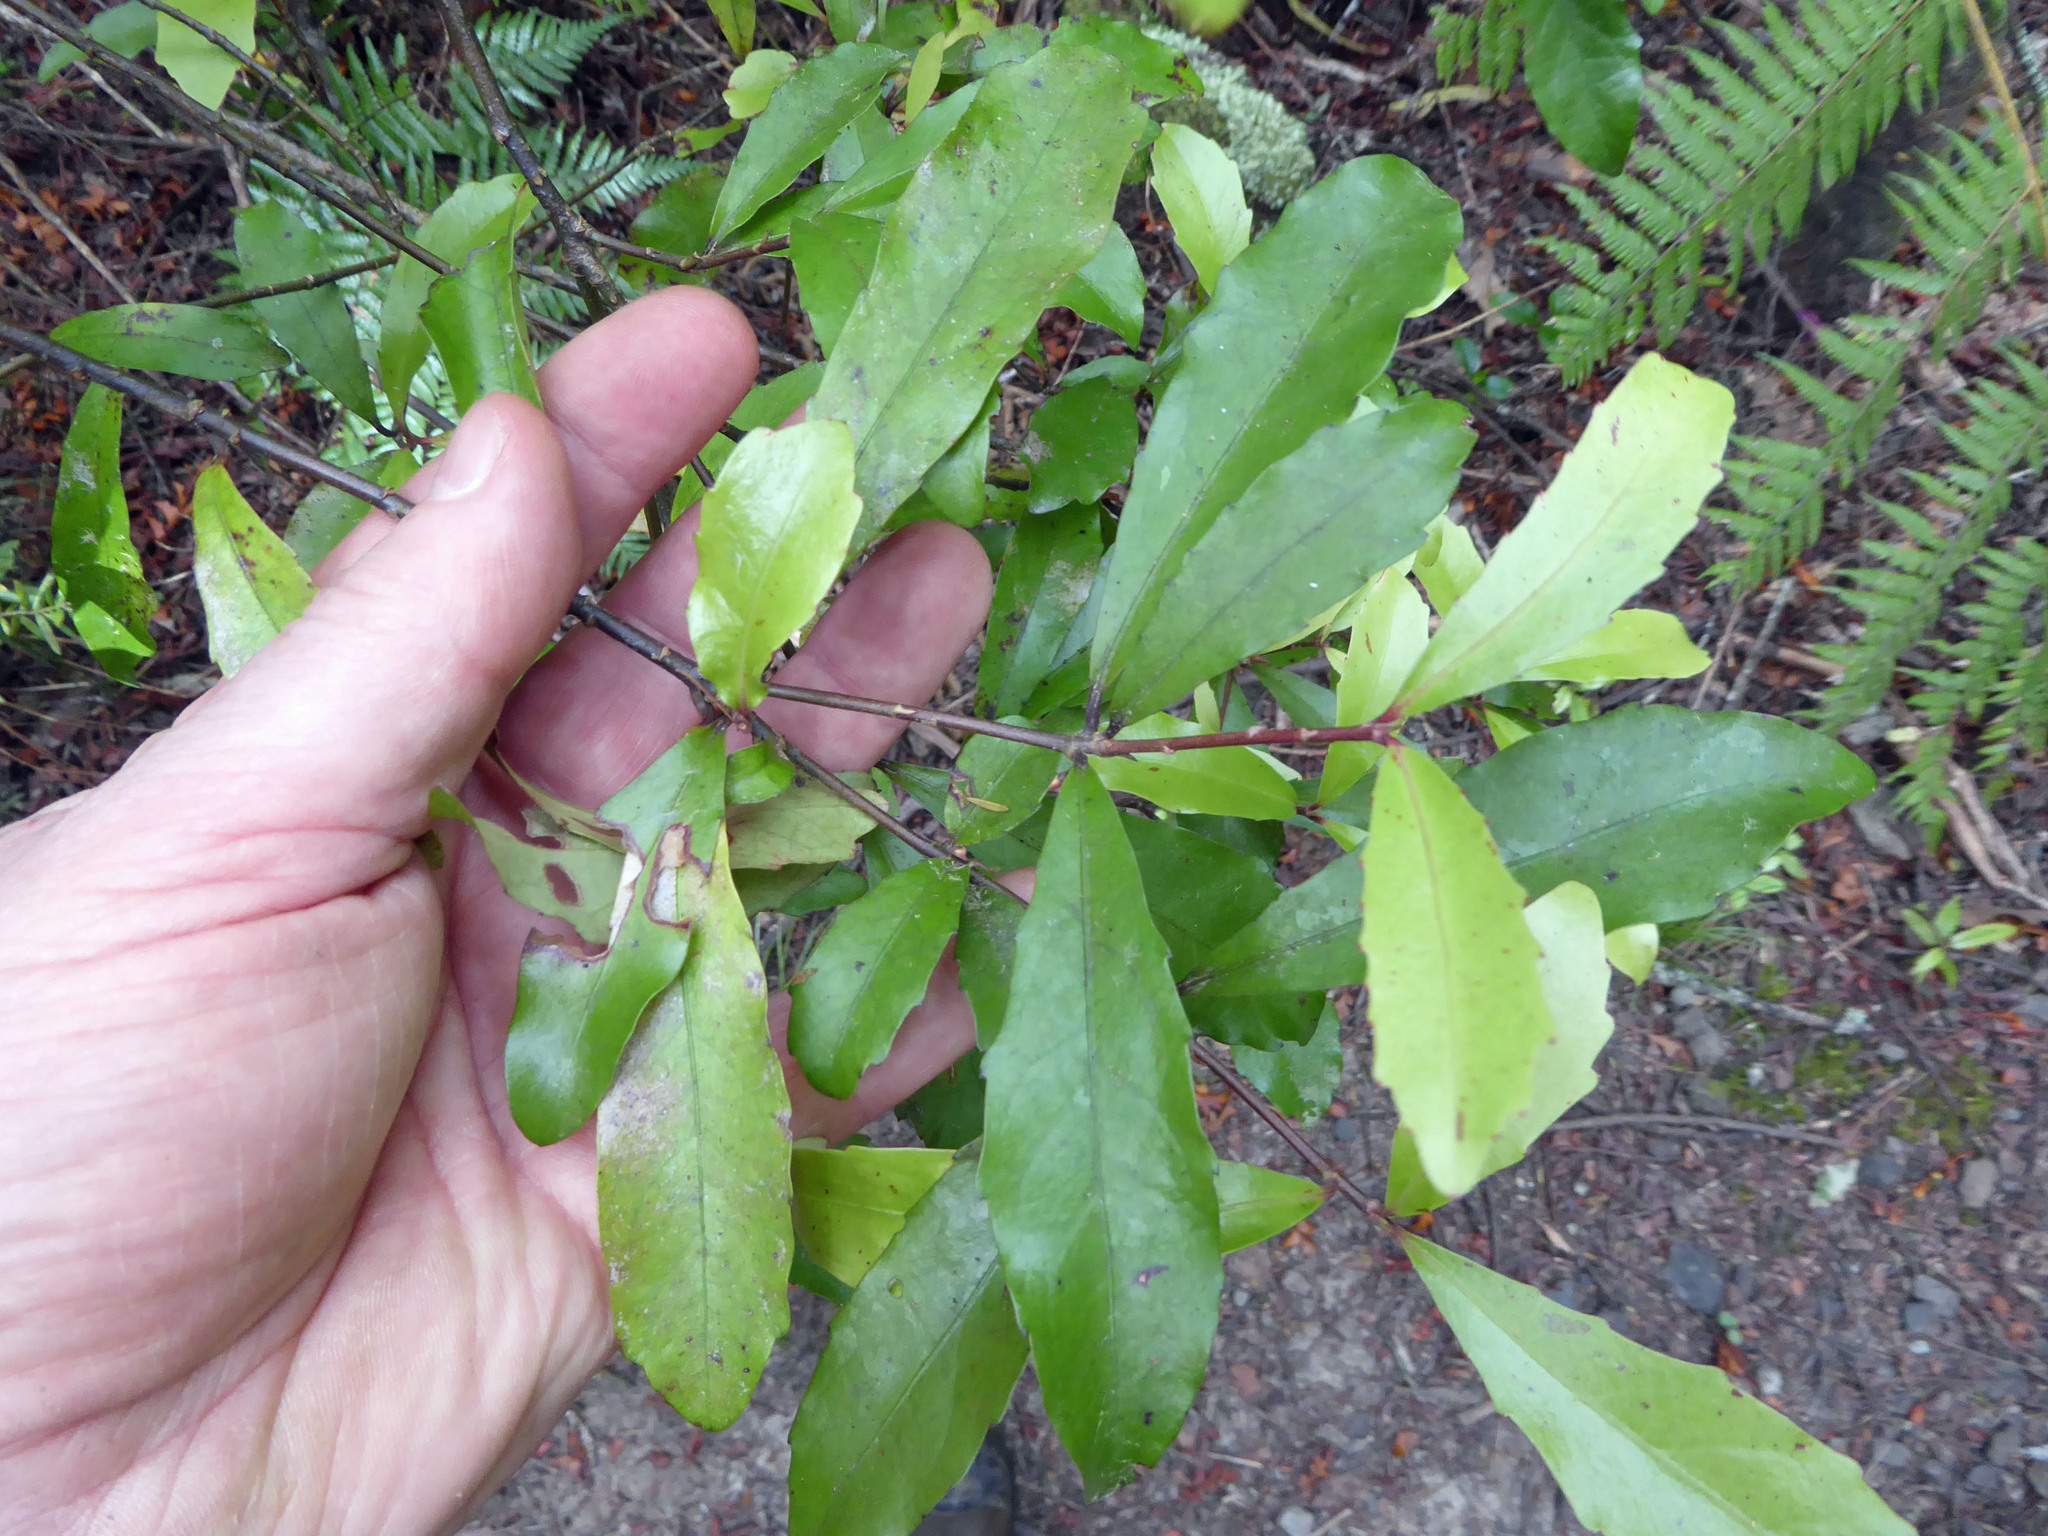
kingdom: Plantae
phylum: Tracheophyta
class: Magnoliopsida
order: Asterales
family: Alseuosmiaceae
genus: Alseuosmia
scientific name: Alseuosmia macrophylla
